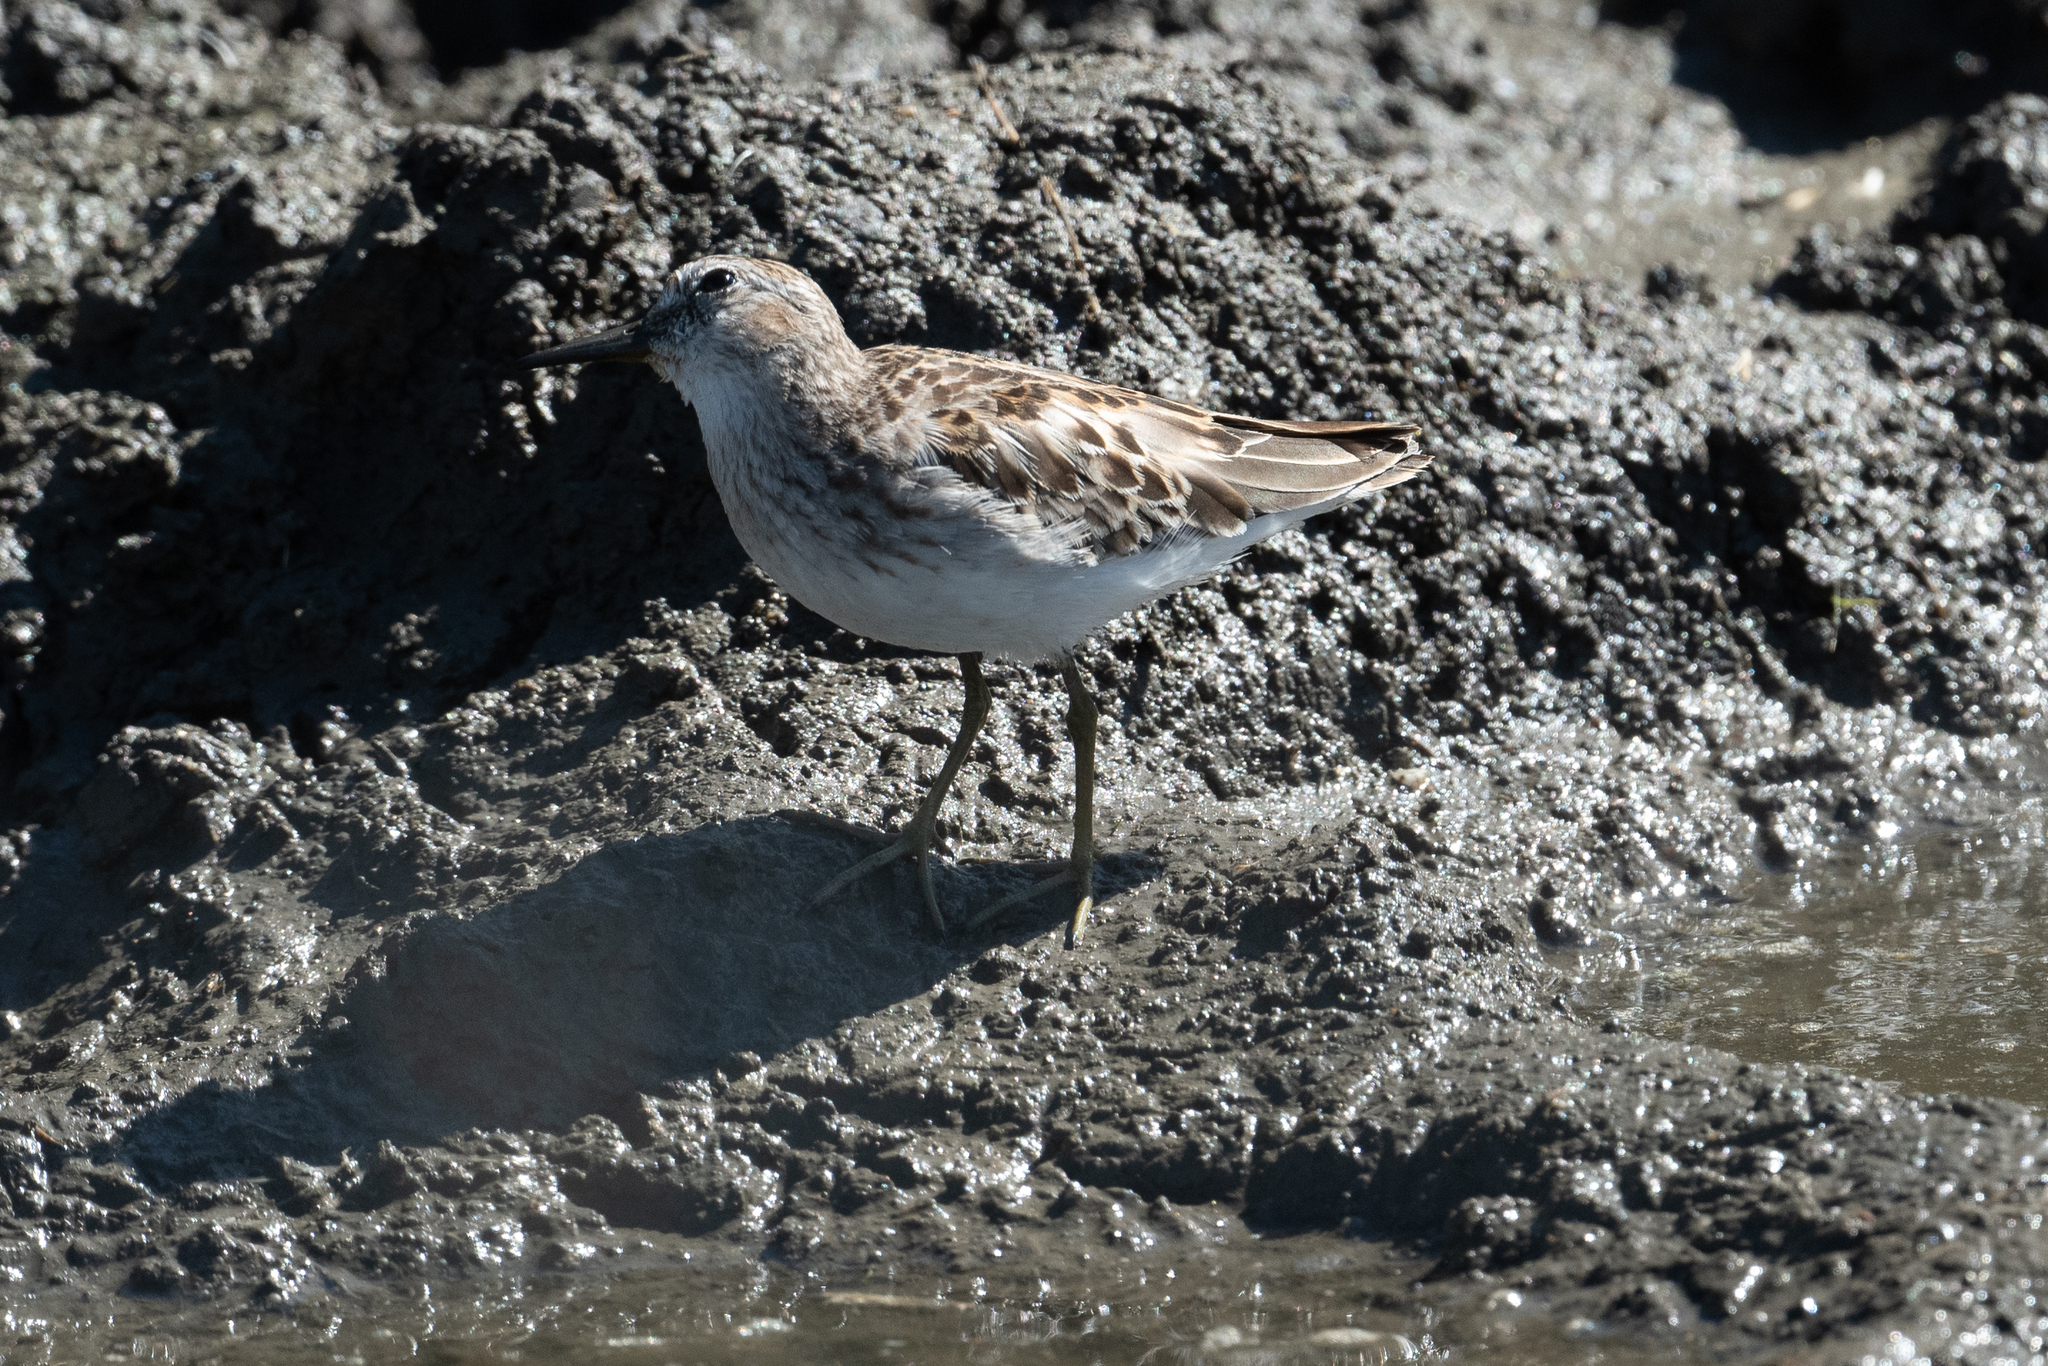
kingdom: Animalia
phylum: Chordata
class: Aves
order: Charadriiformes
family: Scolopacidae
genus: Calidris
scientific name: Calidris minutilla
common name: Least sandpiper
